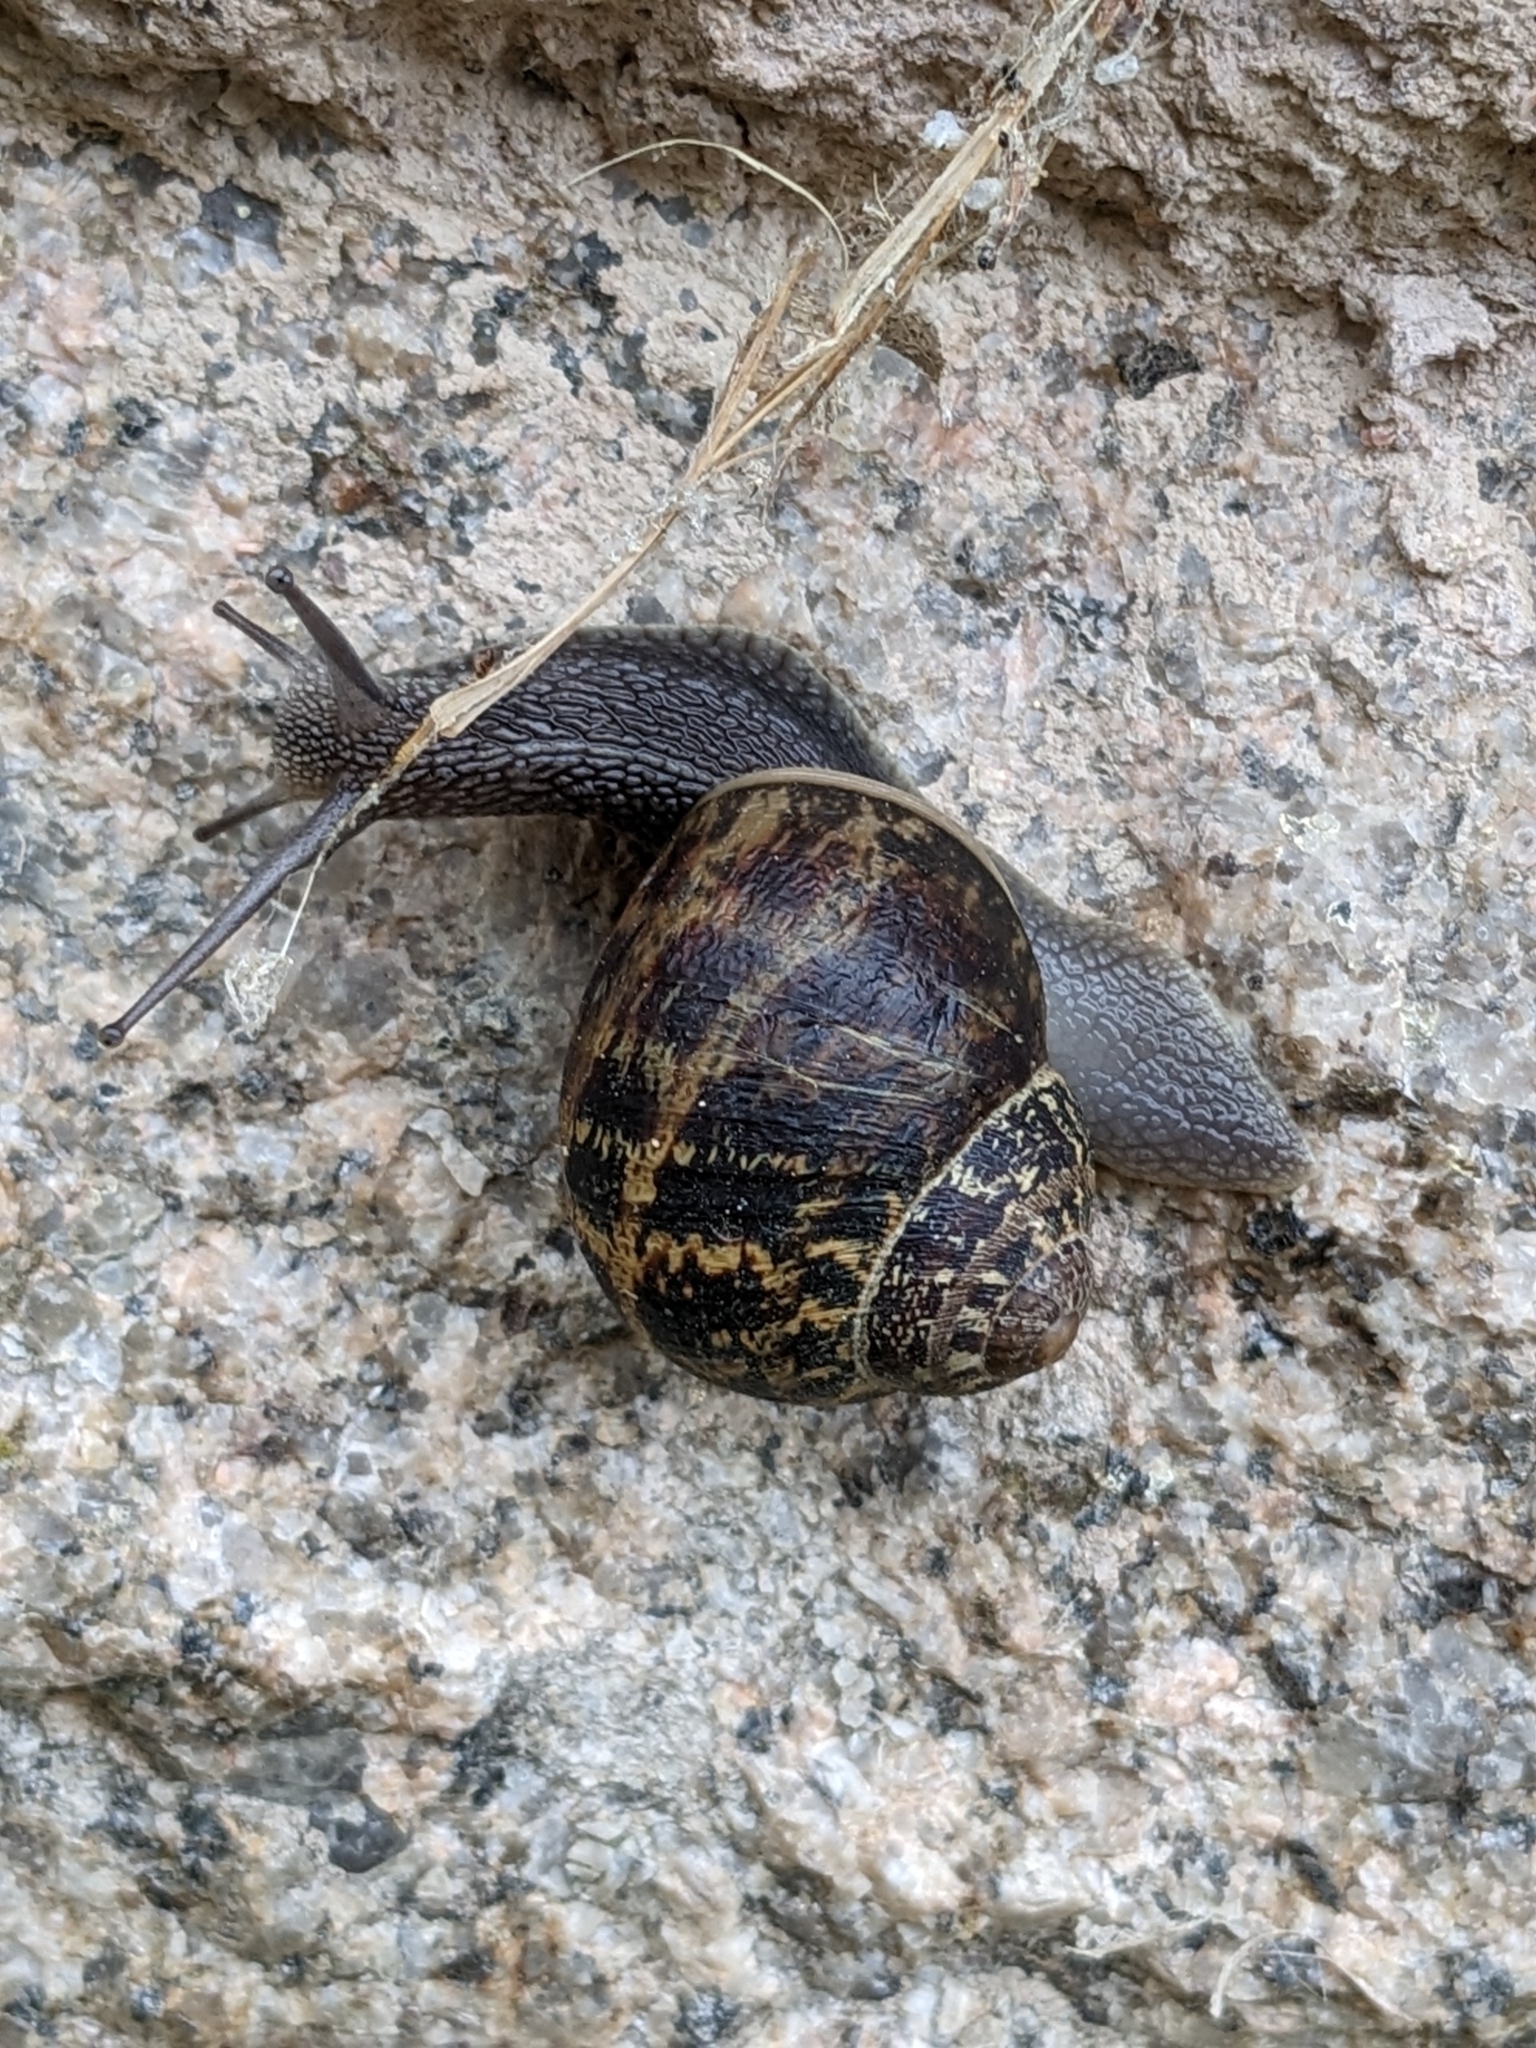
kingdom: Animalia
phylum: Mollusca
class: Gastropoda
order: Stylommatophora
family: Helicidae
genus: Cornu
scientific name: Cornu aspersum
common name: Brown garden snail
